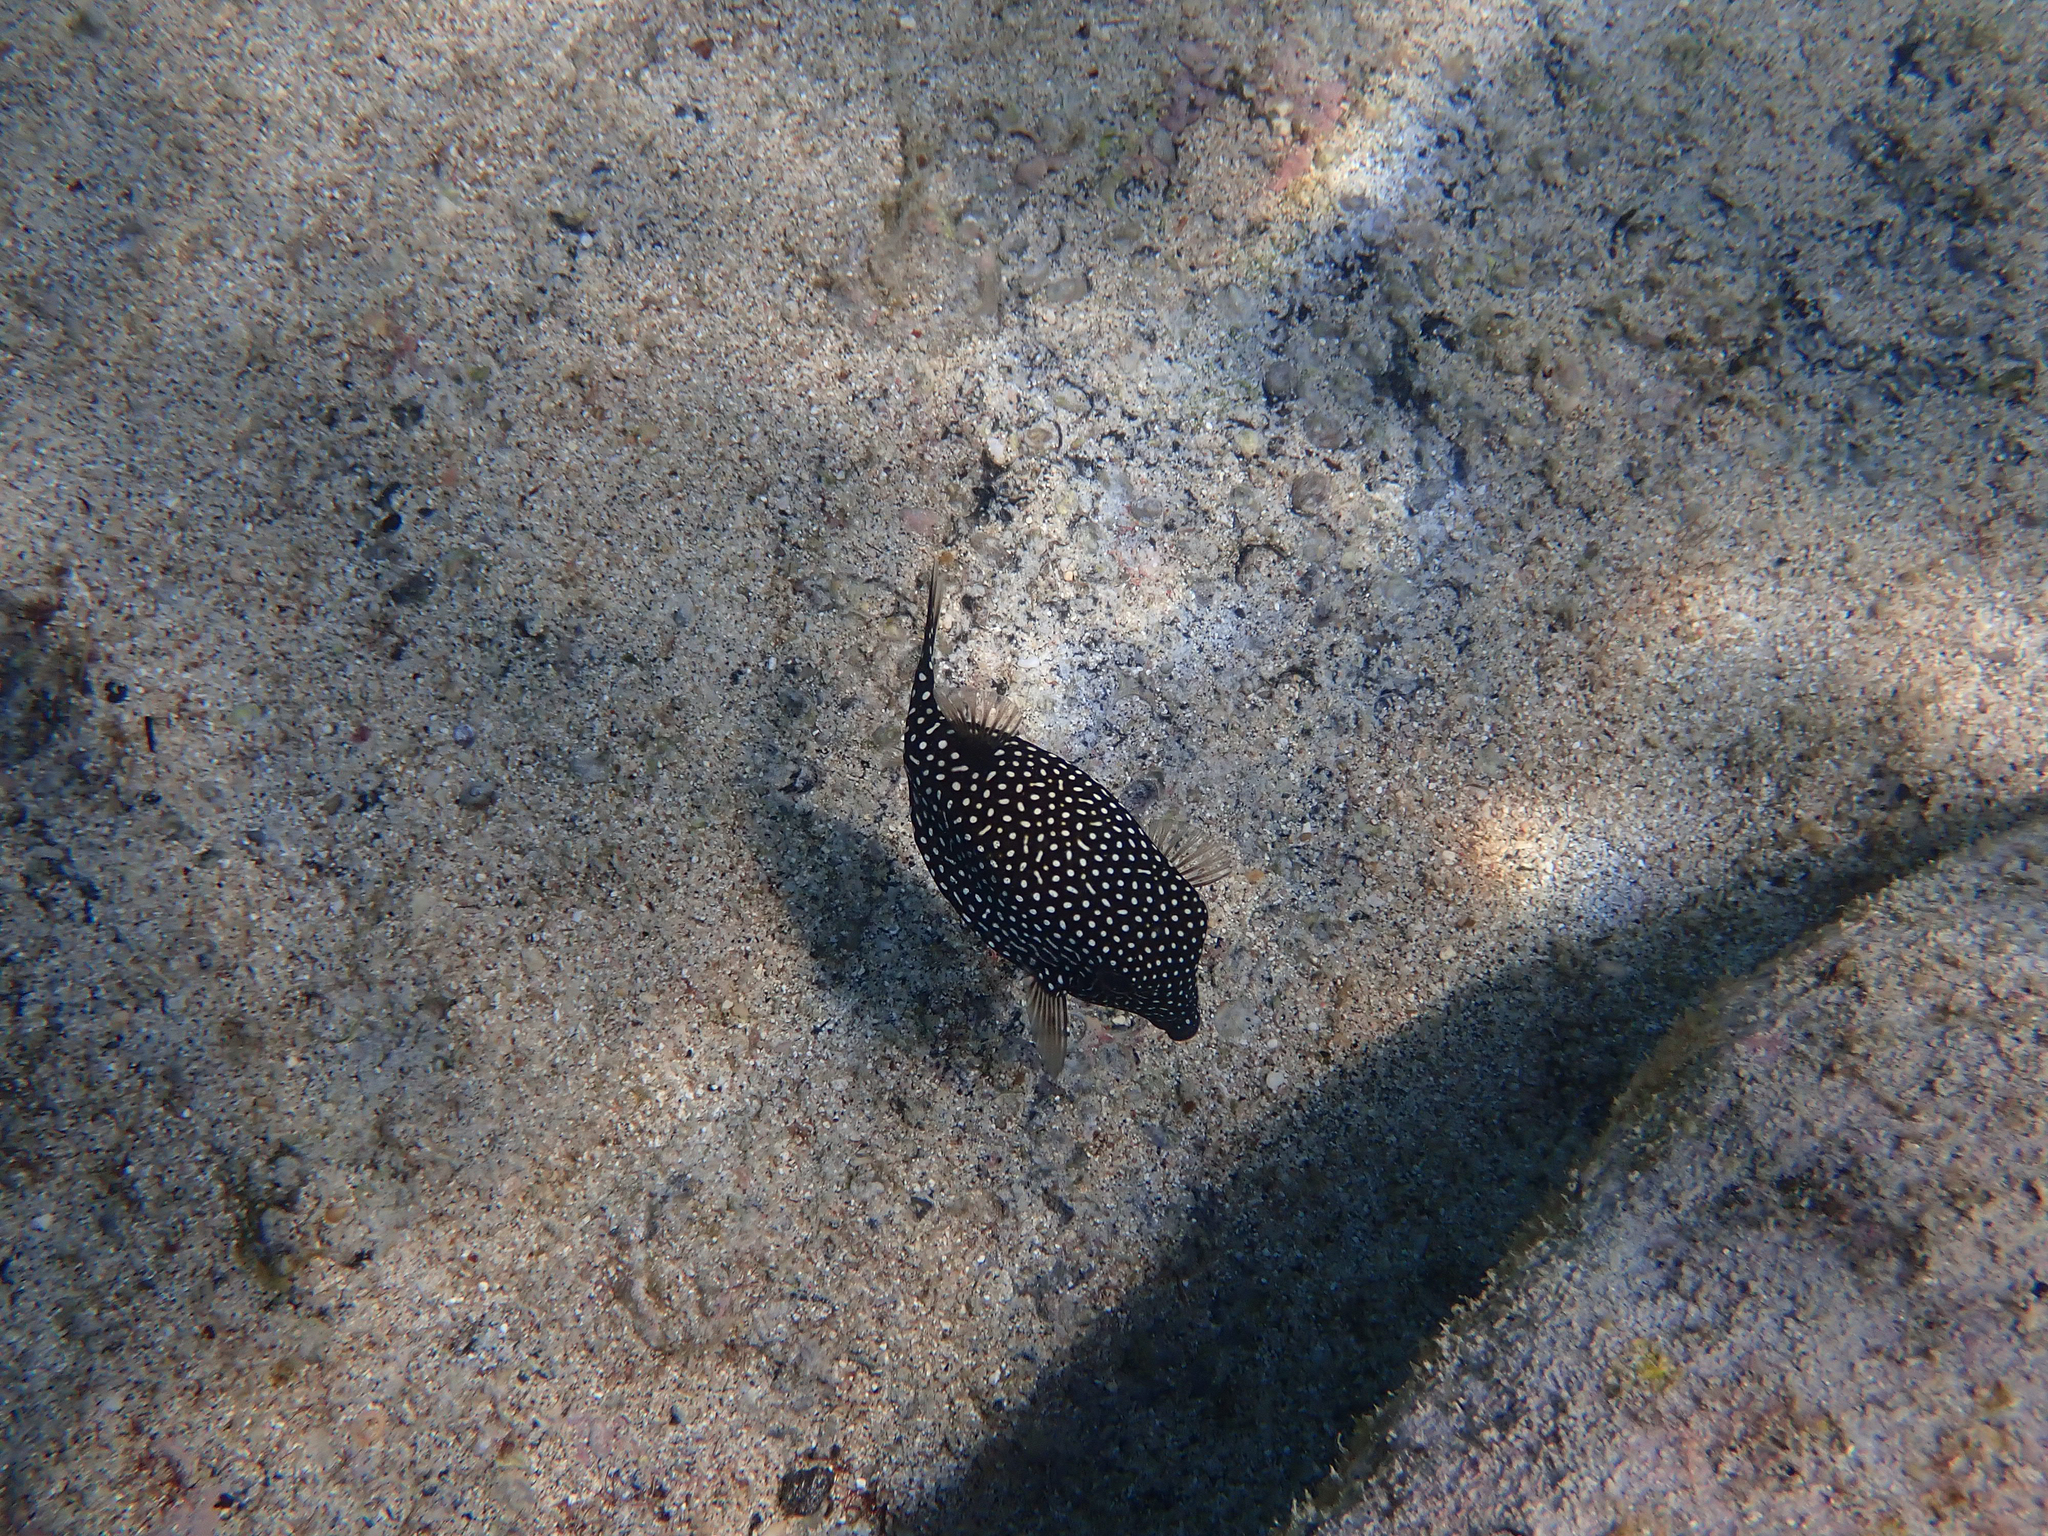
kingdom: Animalia
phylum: Chordata
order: Tetraodontiformes
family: Ostraciidae
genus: Ostracion
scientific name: Ostracion meleagris
